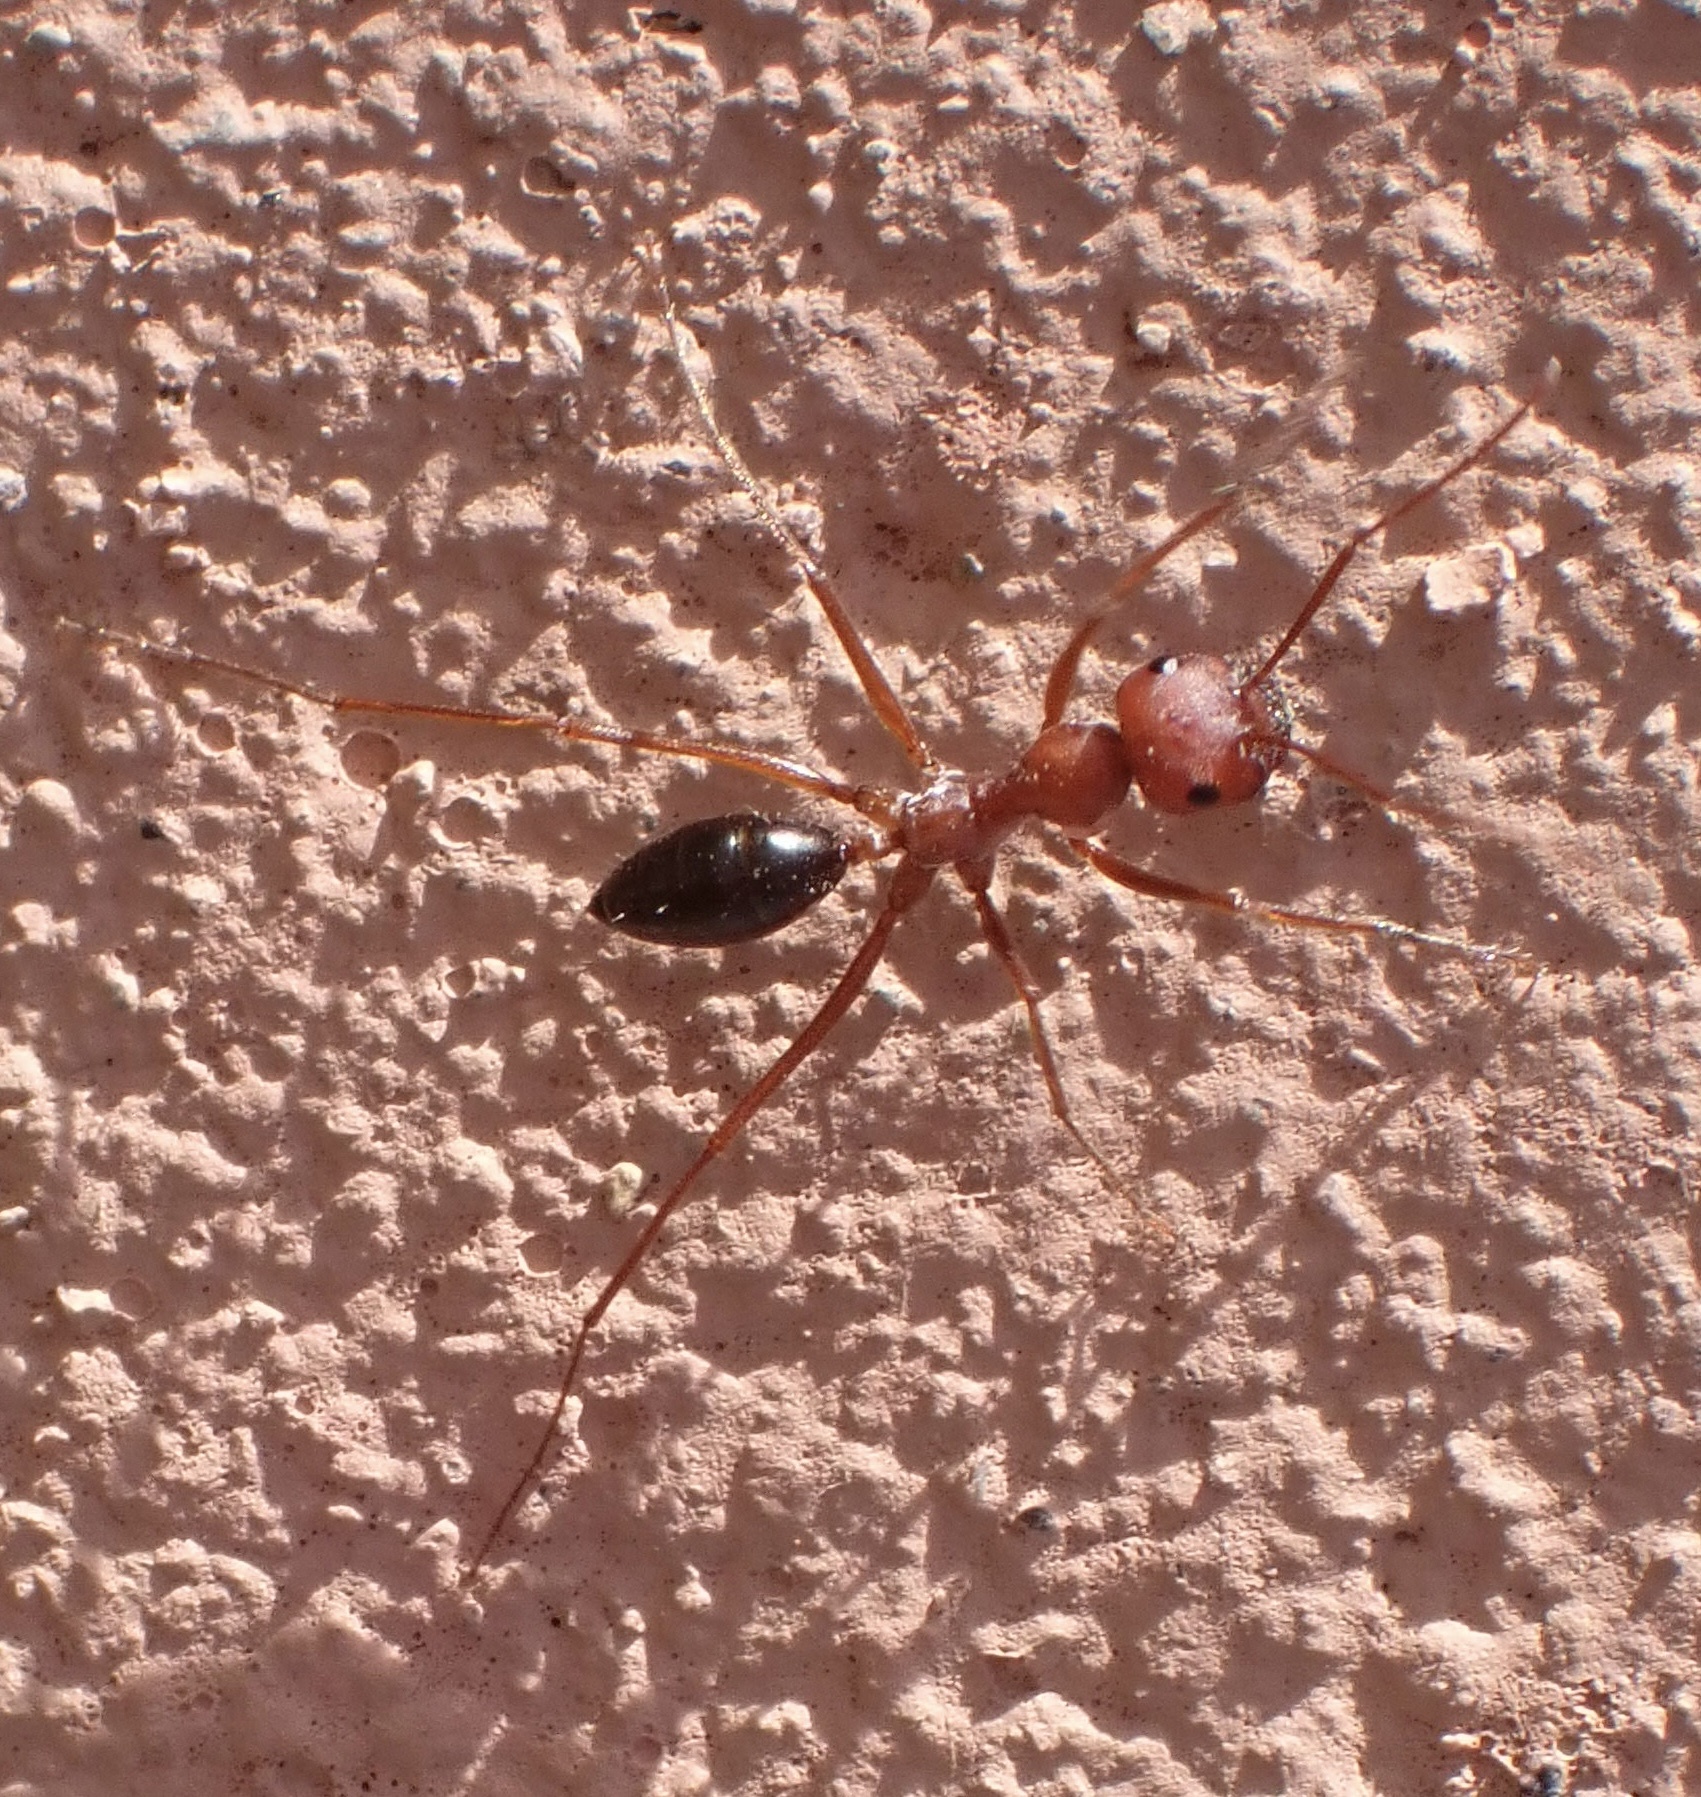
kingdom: Animalia
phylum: Arthropoda
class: Insecta
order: Hymenoptera
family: Formicidae
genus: Cataglyphis
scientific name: Cataglyphis bicolor
